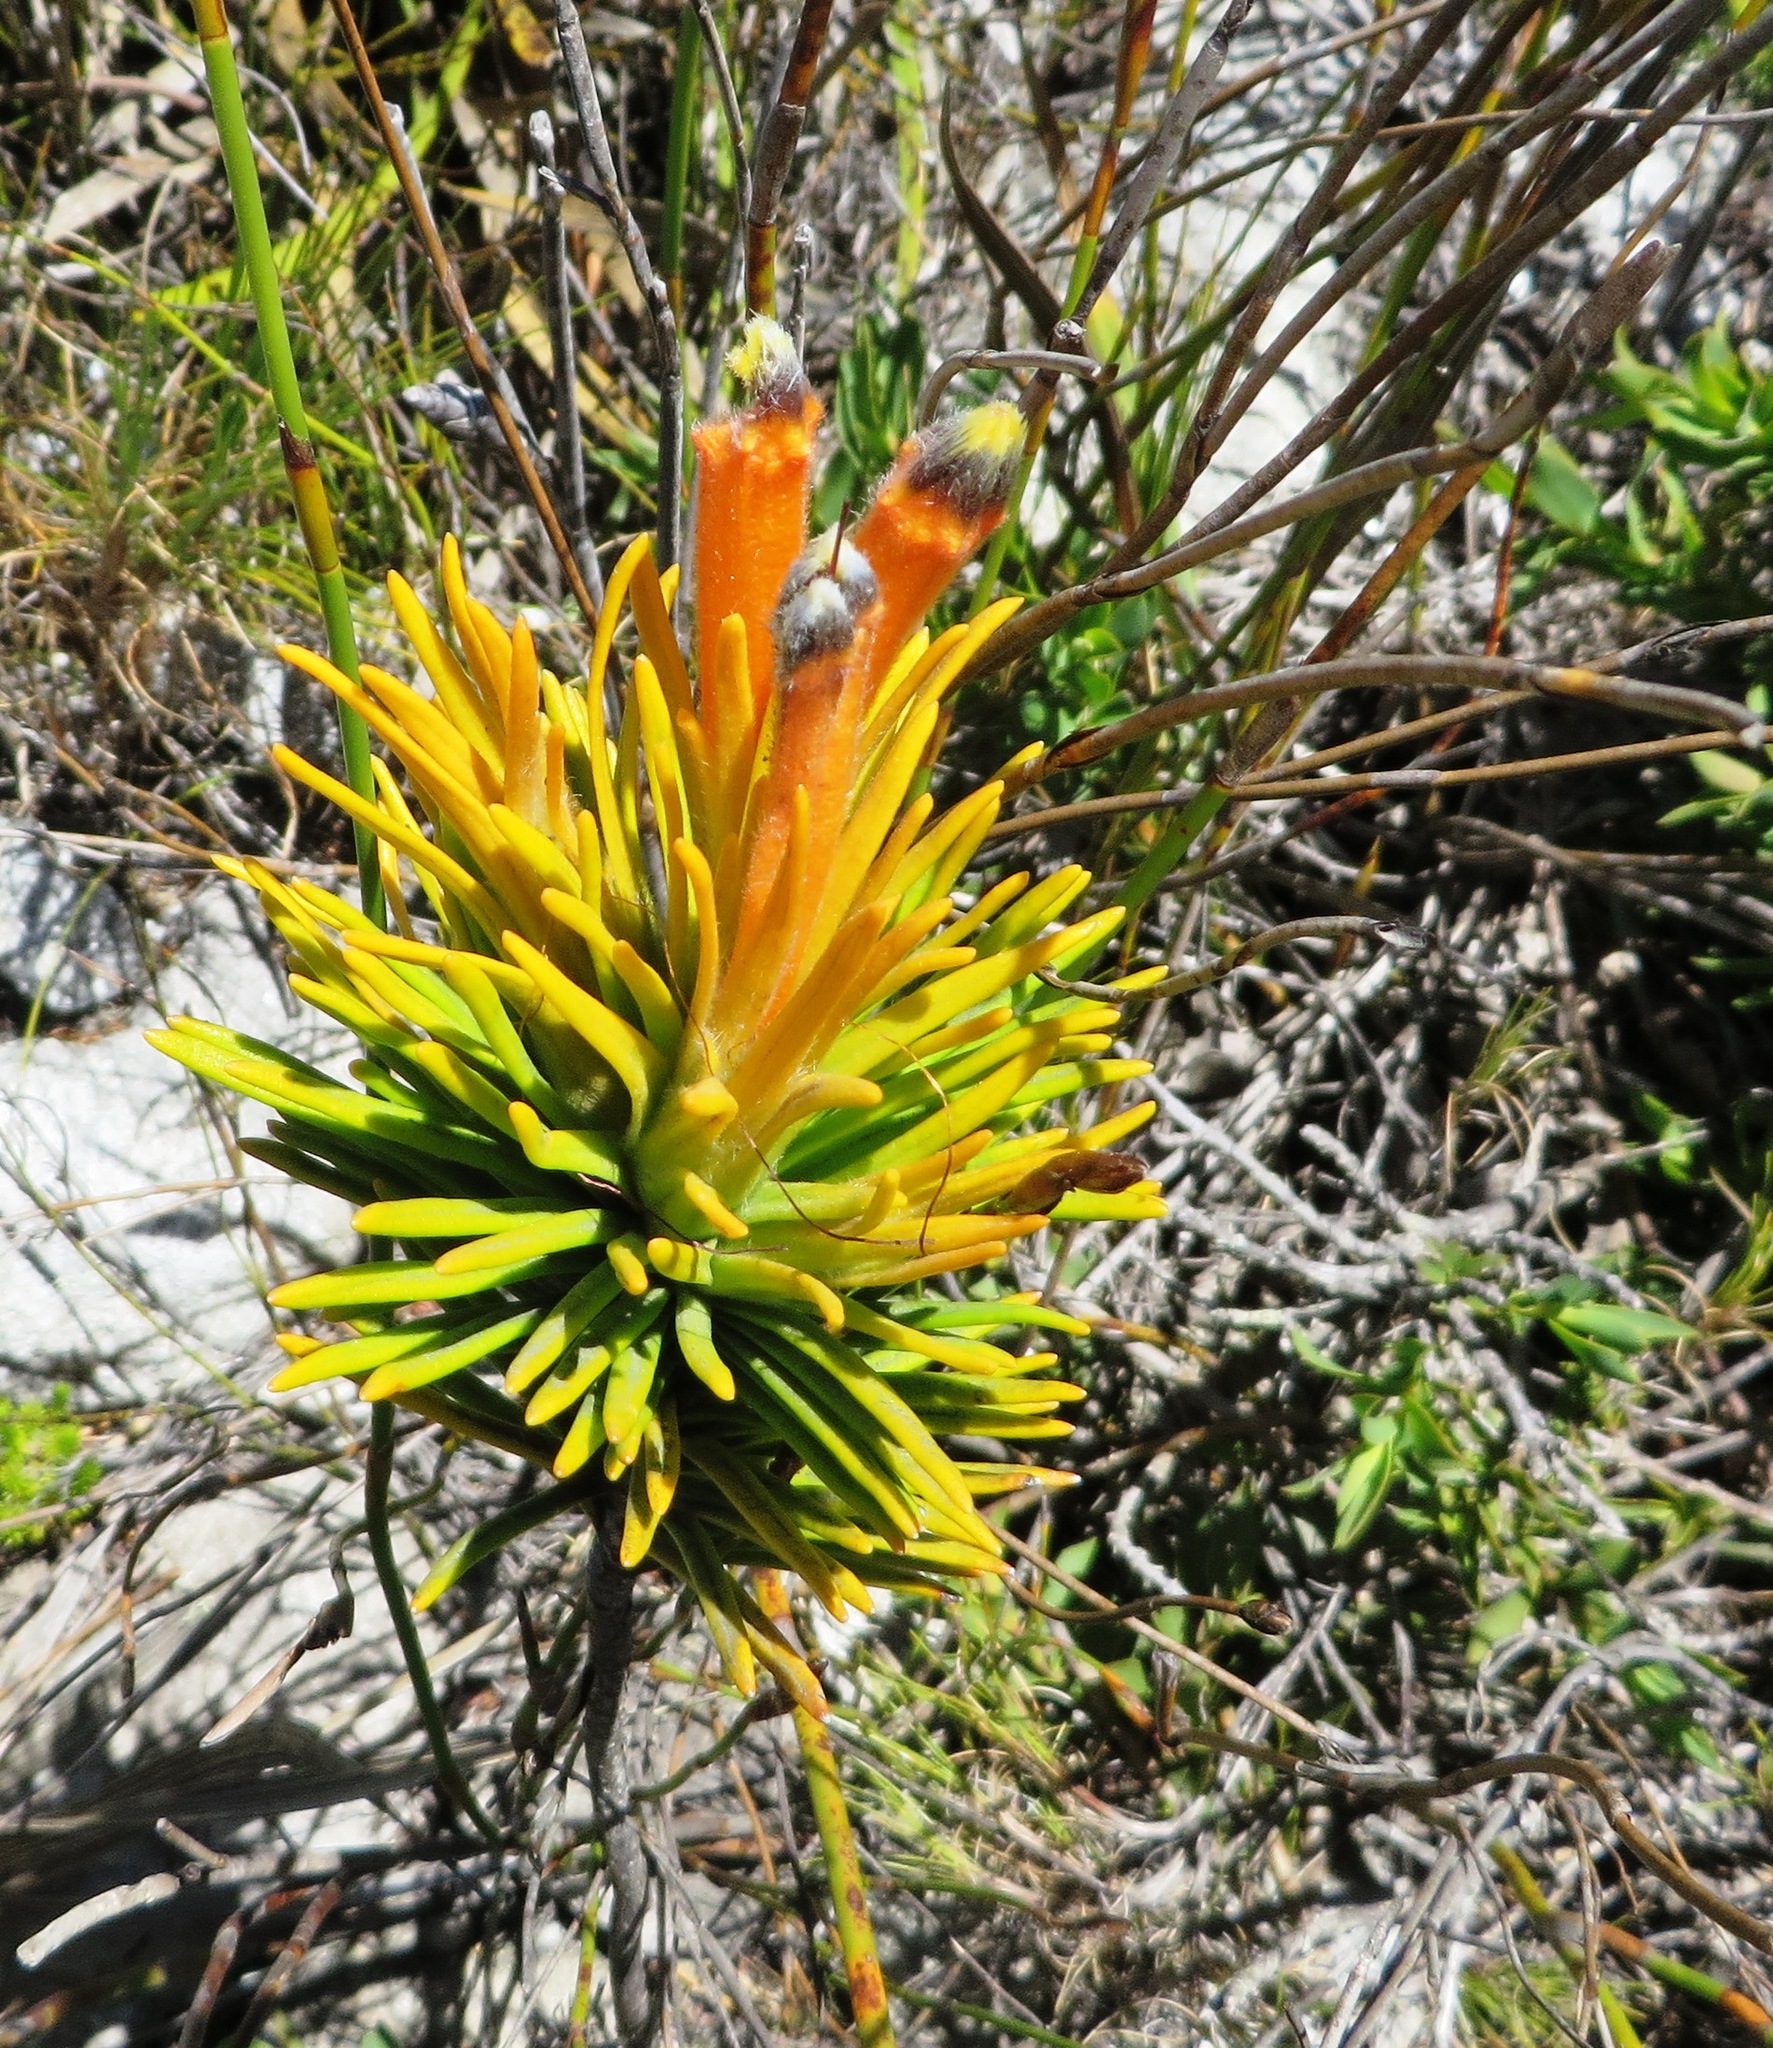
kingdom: Plantae
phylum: Tracheophyta
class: Magnoliopsida
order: Lamiales
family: Stilbaceae
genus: Retzia
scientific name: Retzia capensis
